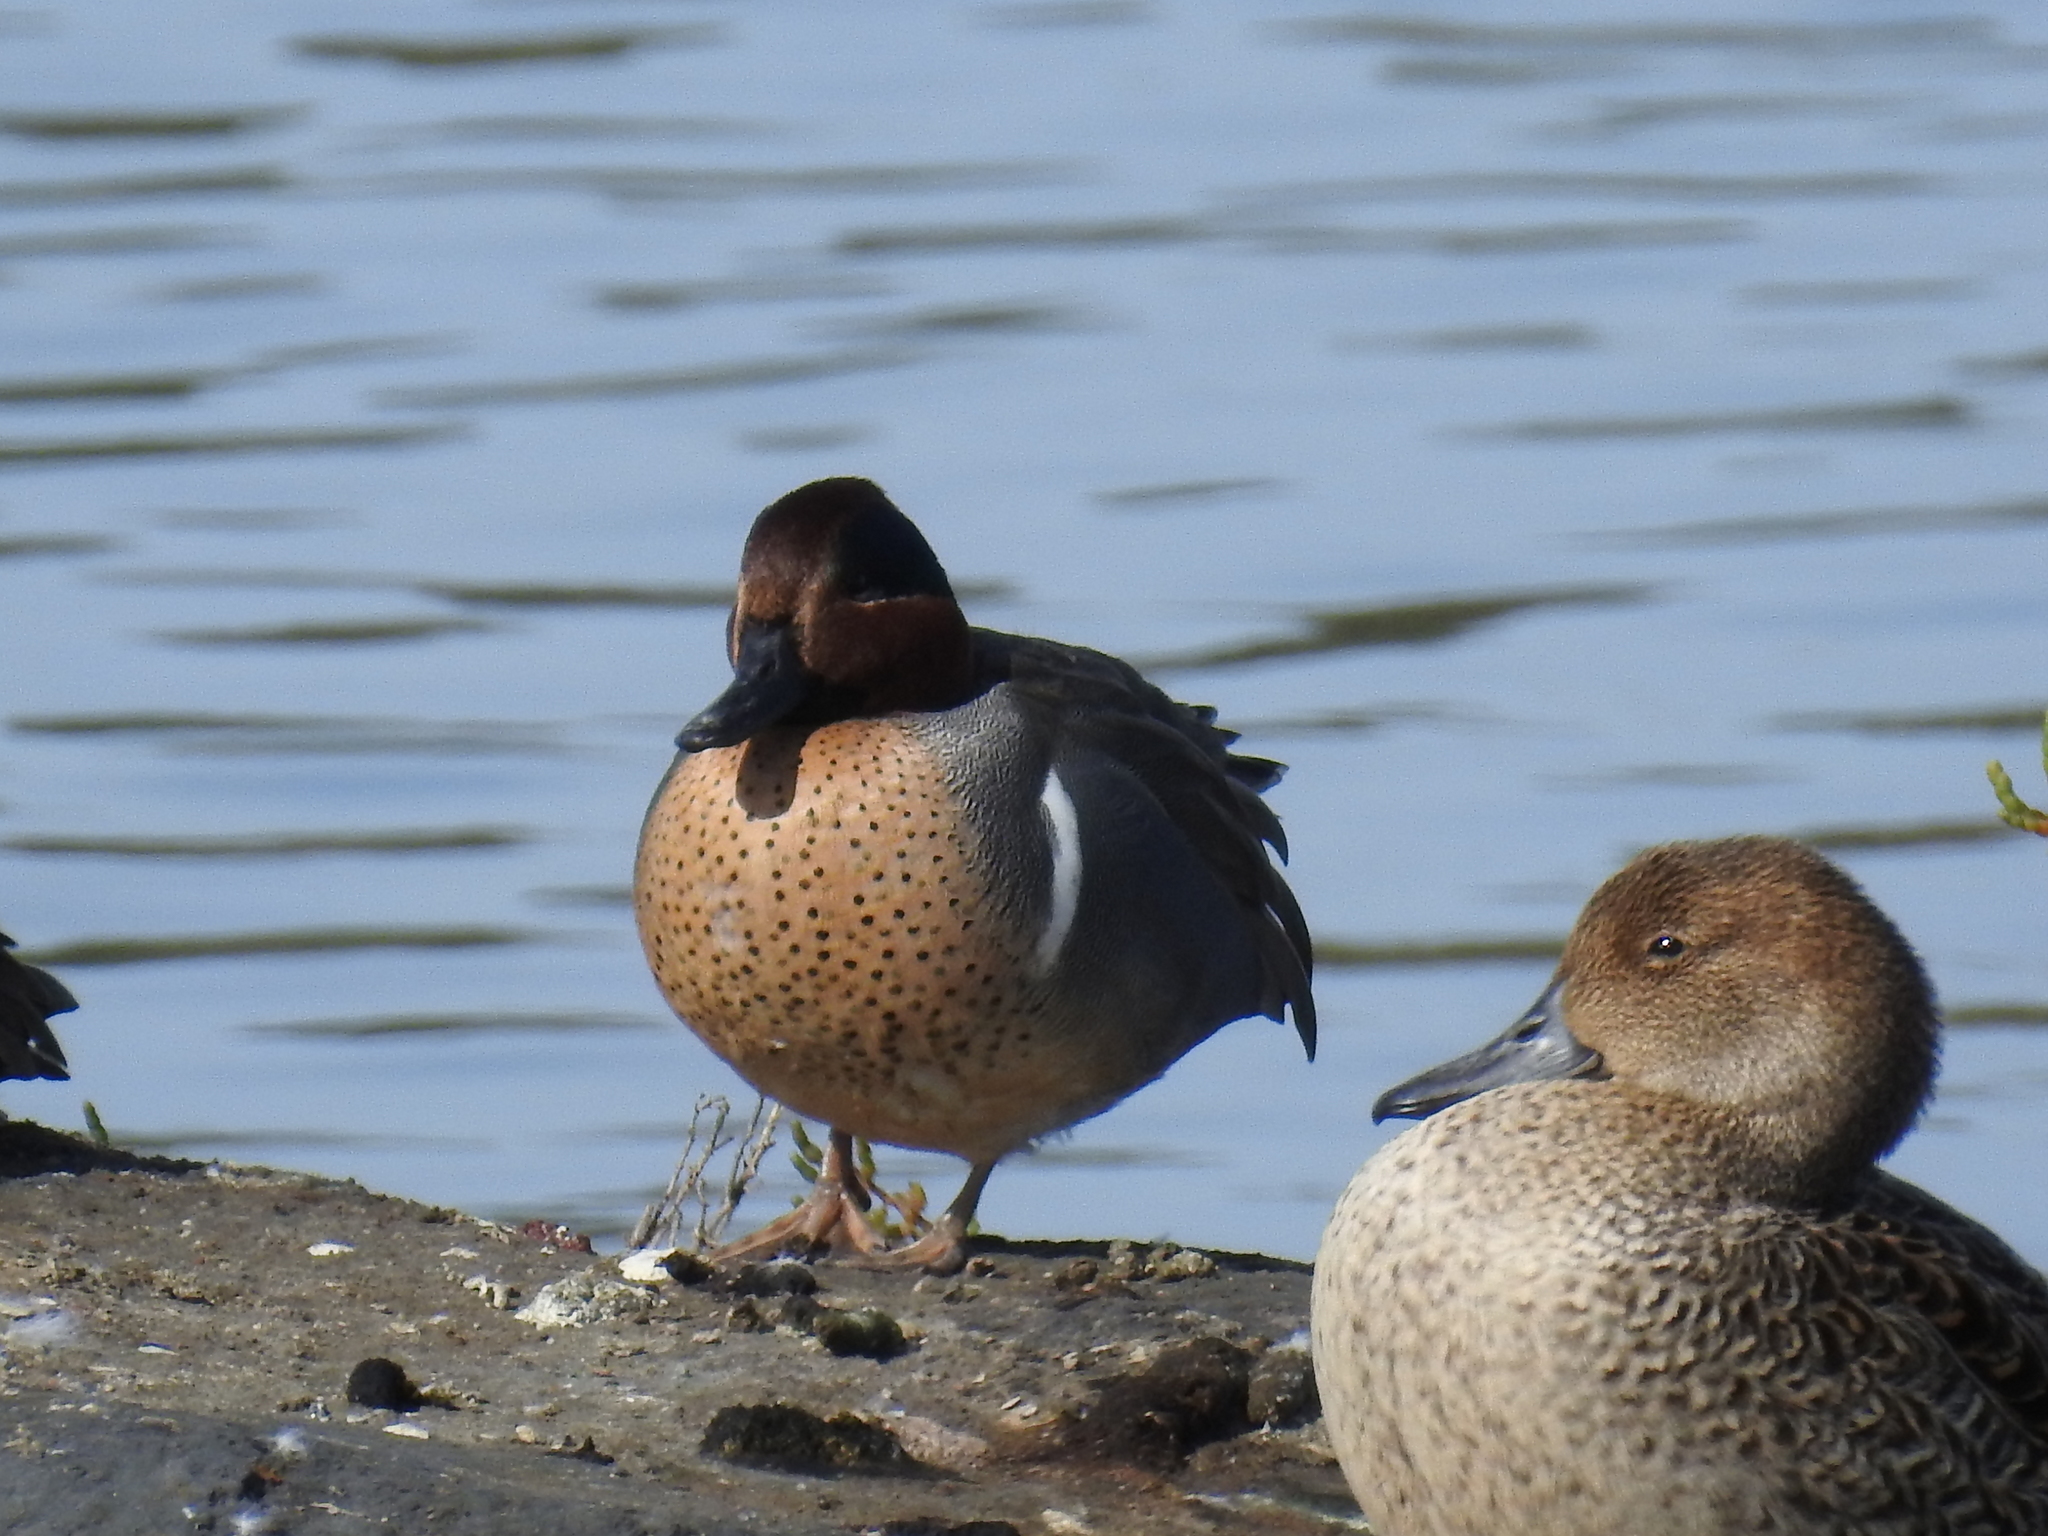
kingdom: Animalia
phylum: Chordata
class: Aves
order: Anseriformes
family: Anatidae
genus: Anas
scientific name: Anas crecca
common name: Eurasian teal
